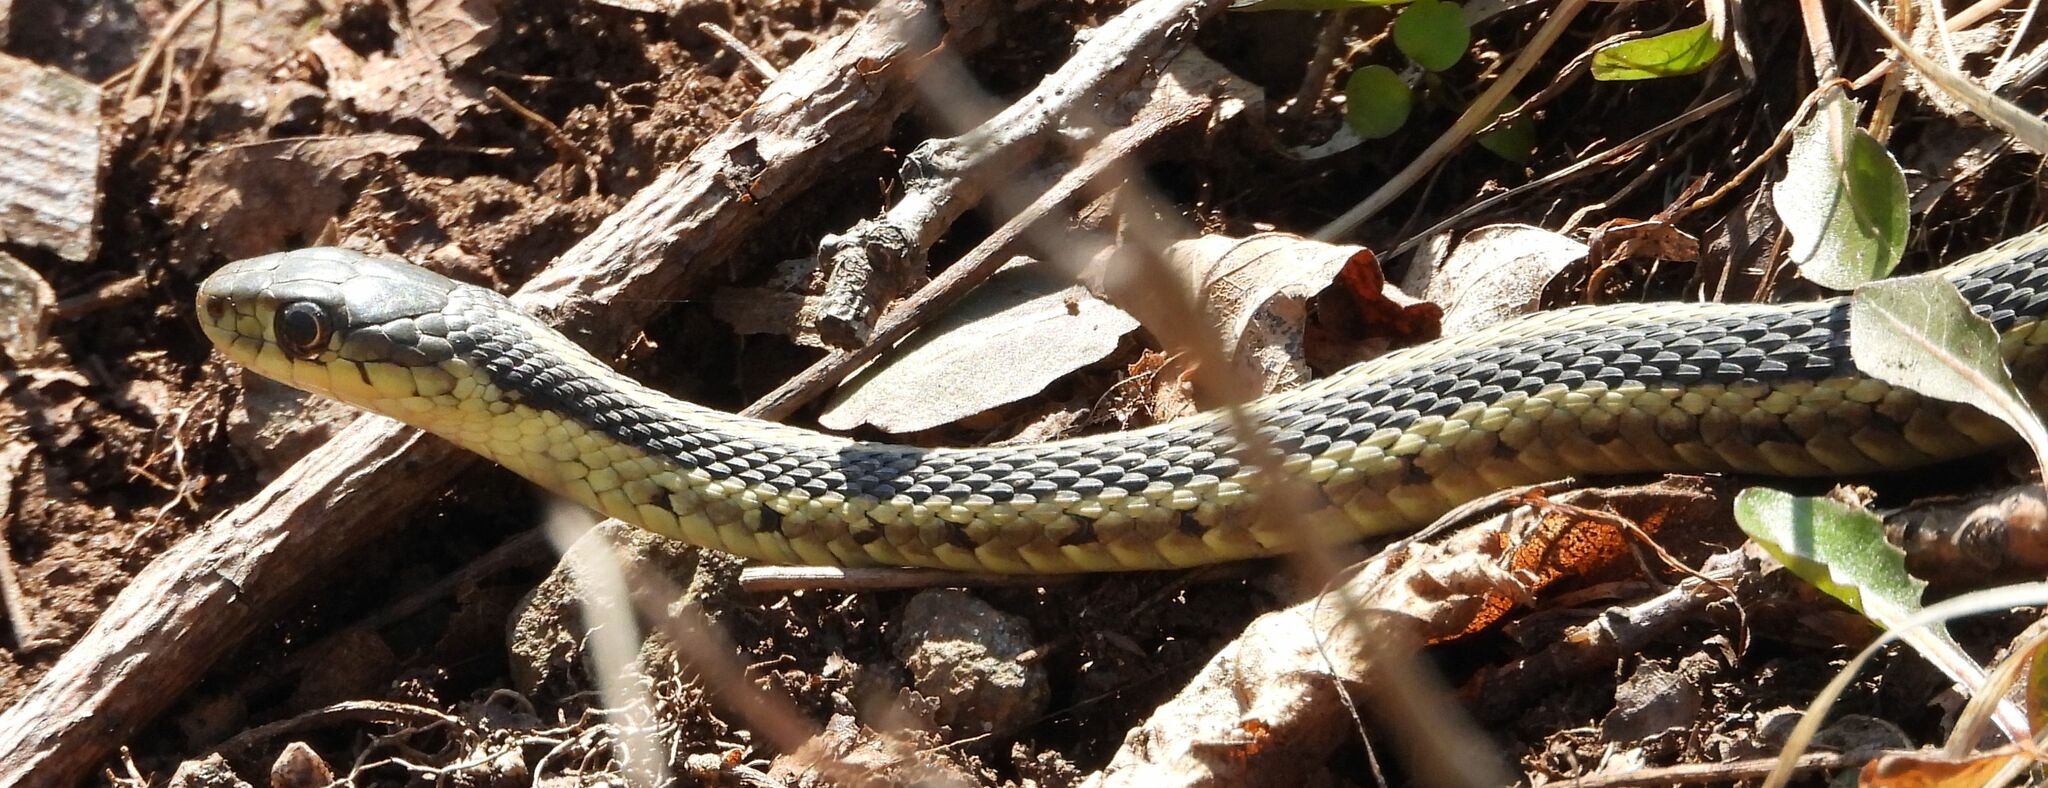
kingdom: Animalia
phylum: Chordata
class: Squamata
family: Colubridae
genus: Thamnophis
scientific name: Thamnophis sirtalis
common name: Common garter snake
